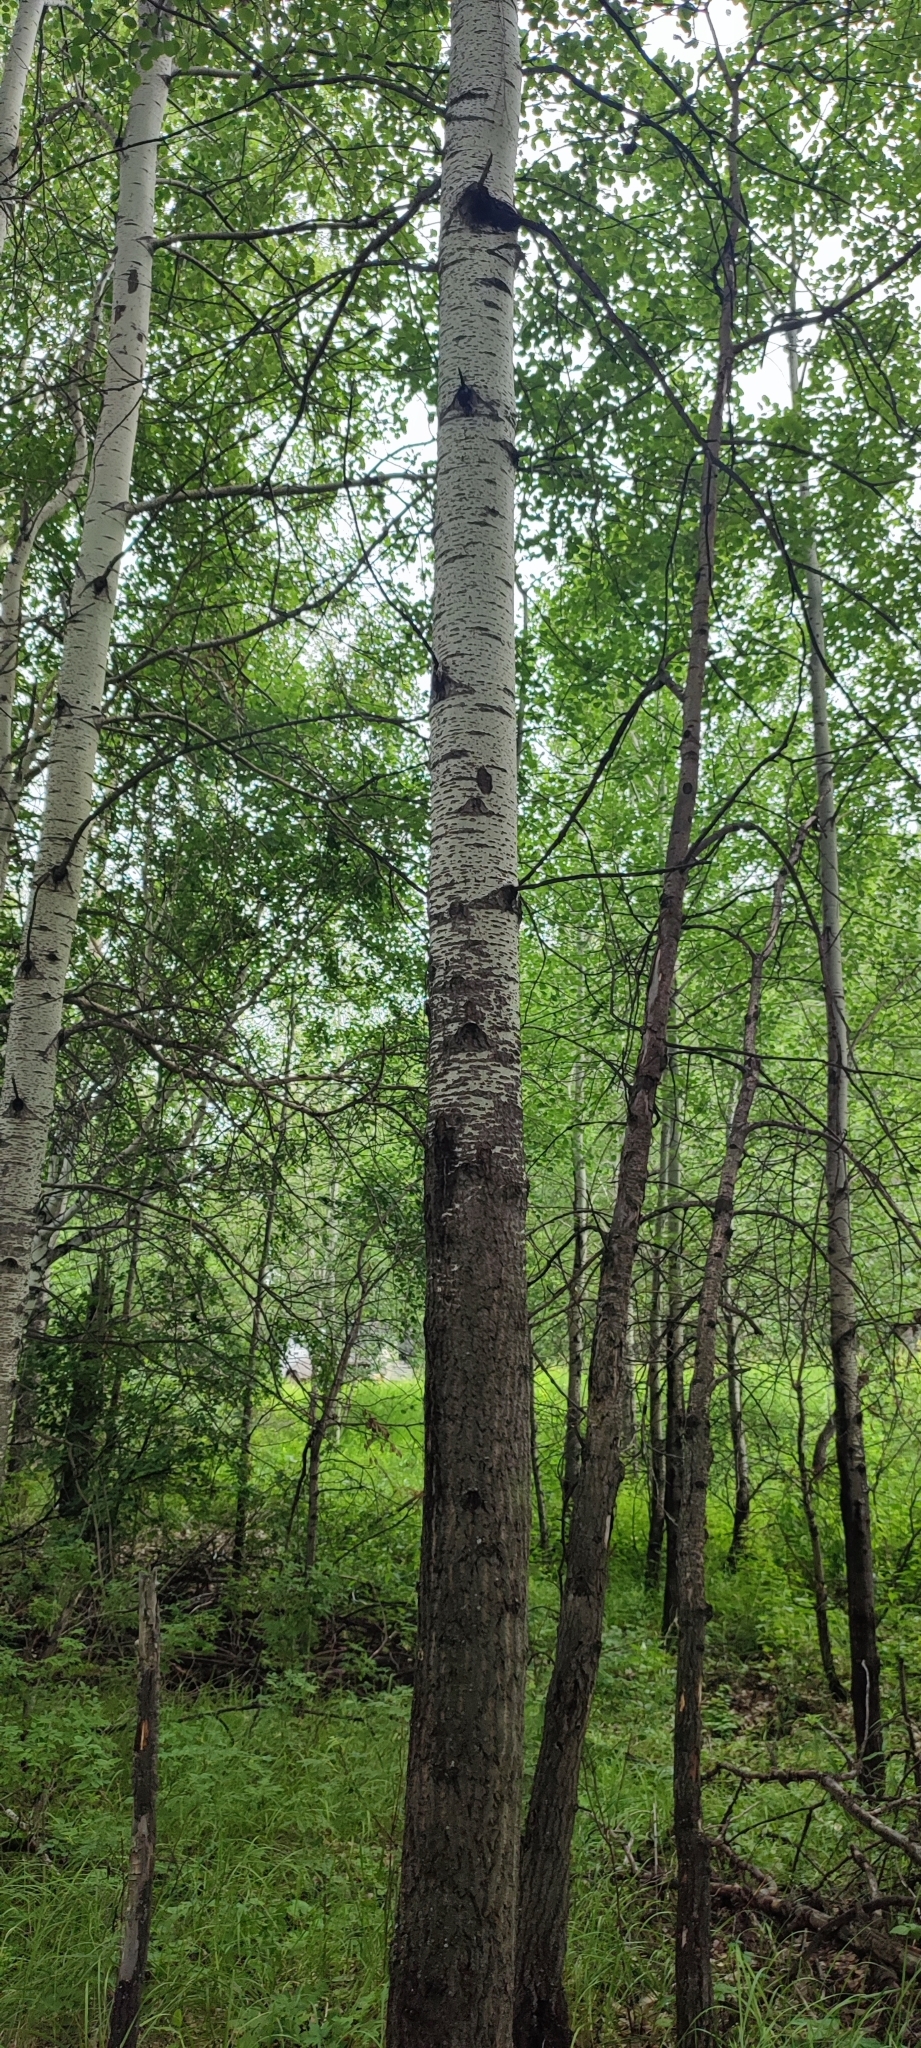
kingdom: Plantae
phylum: Tracheophyta
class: Magnoliopsida
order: Malpighiales
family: Salicaceae
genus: Populus
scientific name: Populus tremula
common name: European aspen
